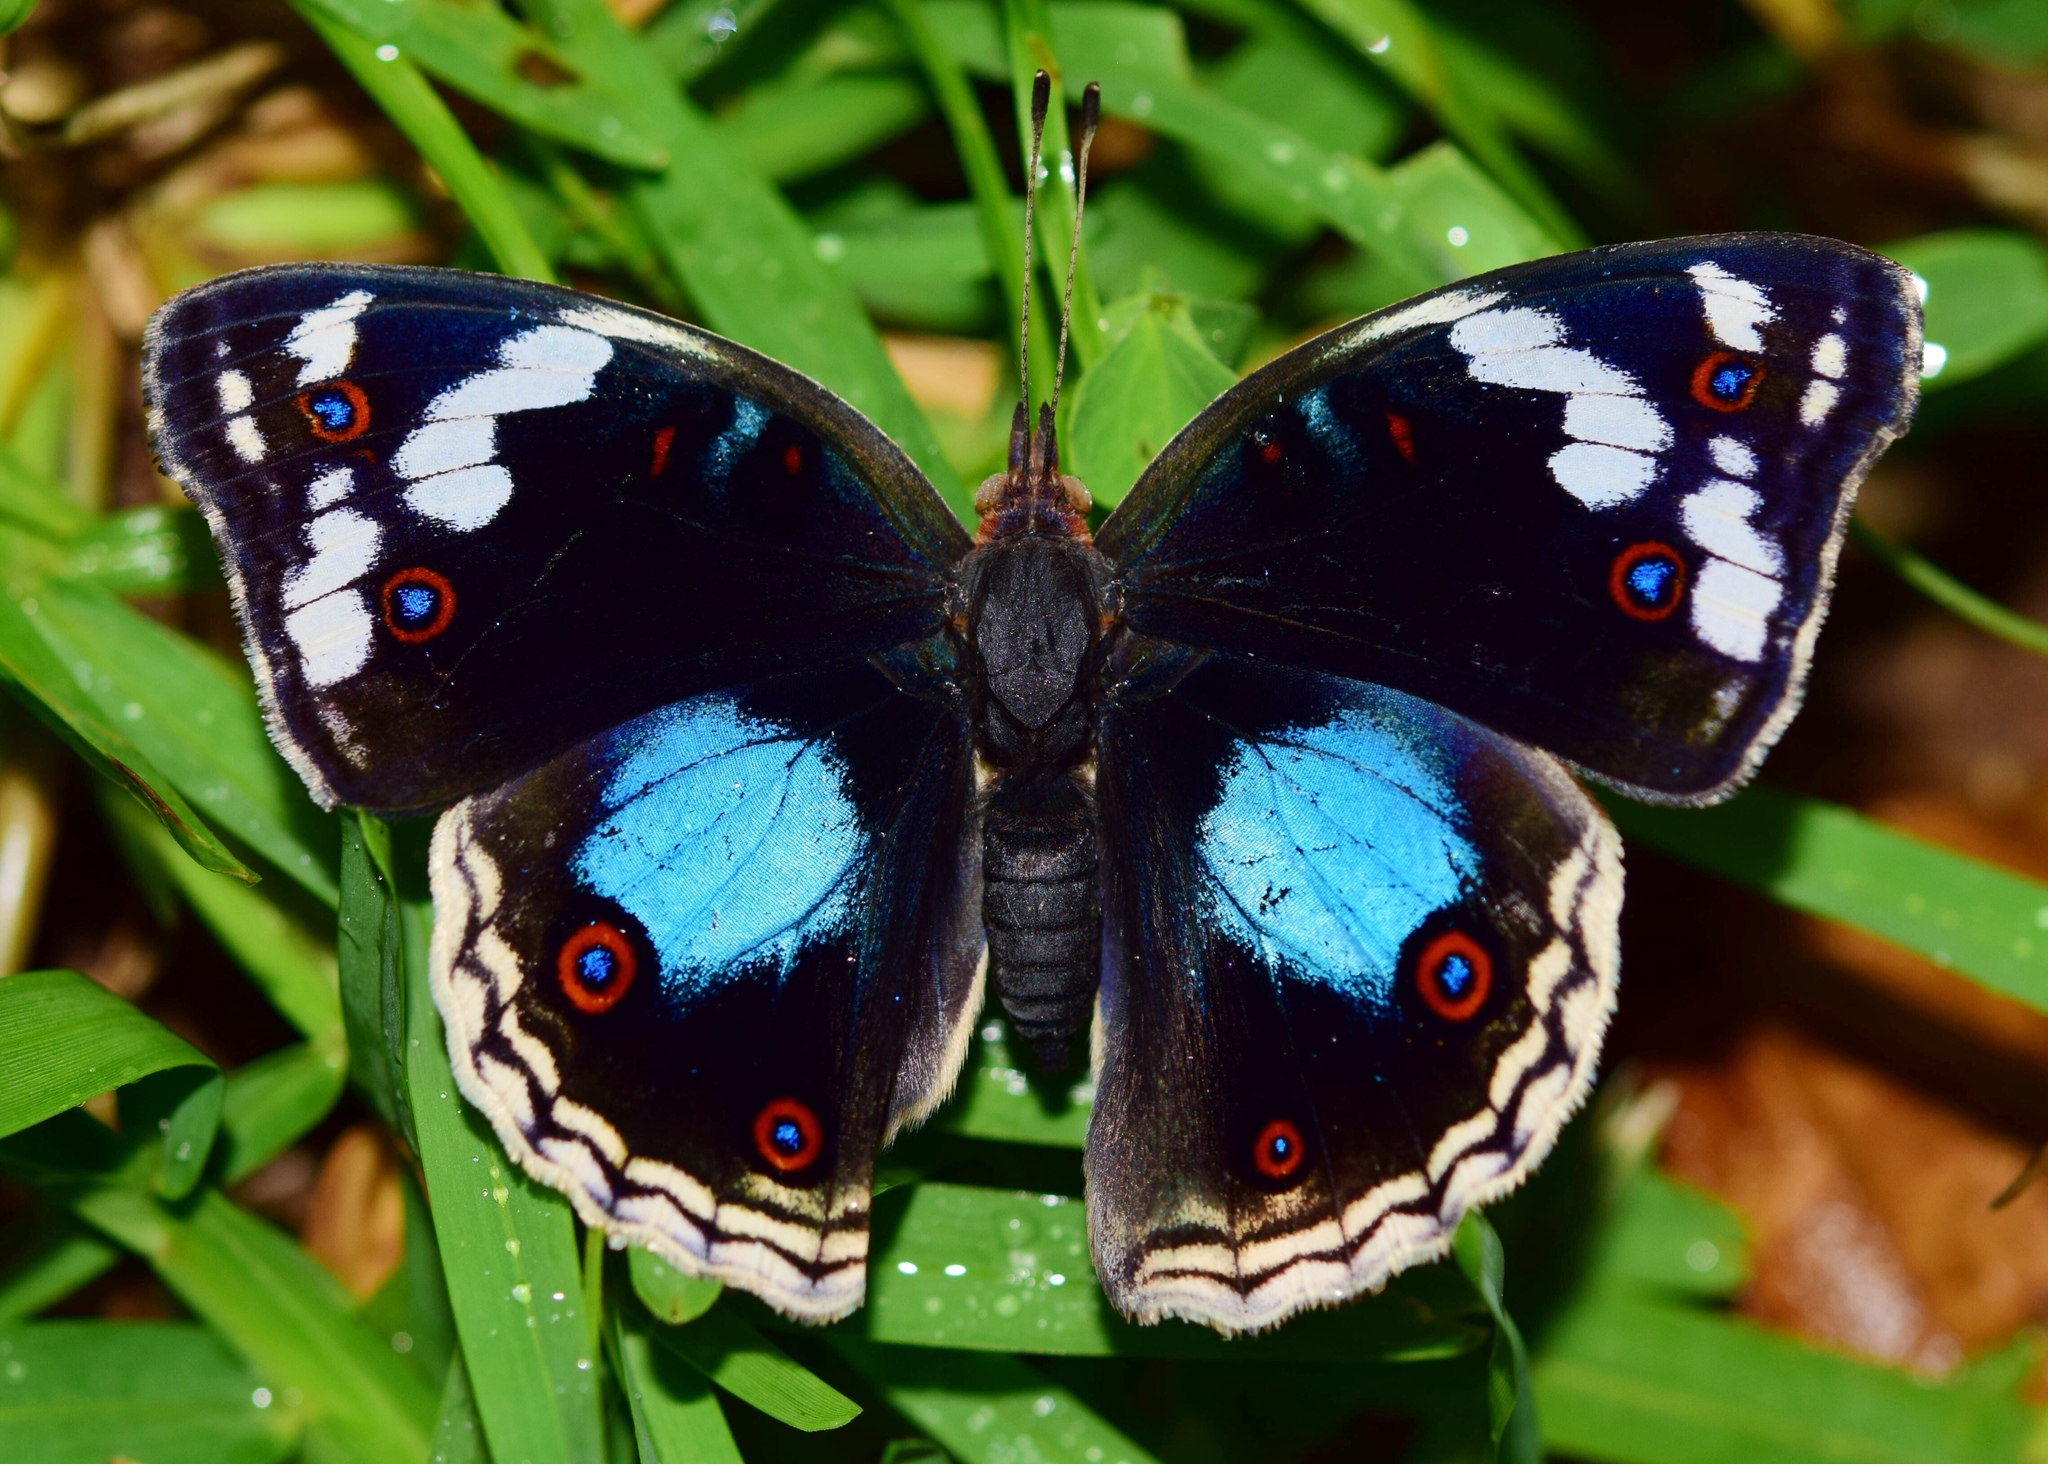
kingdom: Animalia
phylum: Arthropoda
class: Insecta
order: Lepidoptera
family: Nymphalidae
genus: Junonia
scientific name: Junonia oenone
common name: Dark blue pansy
